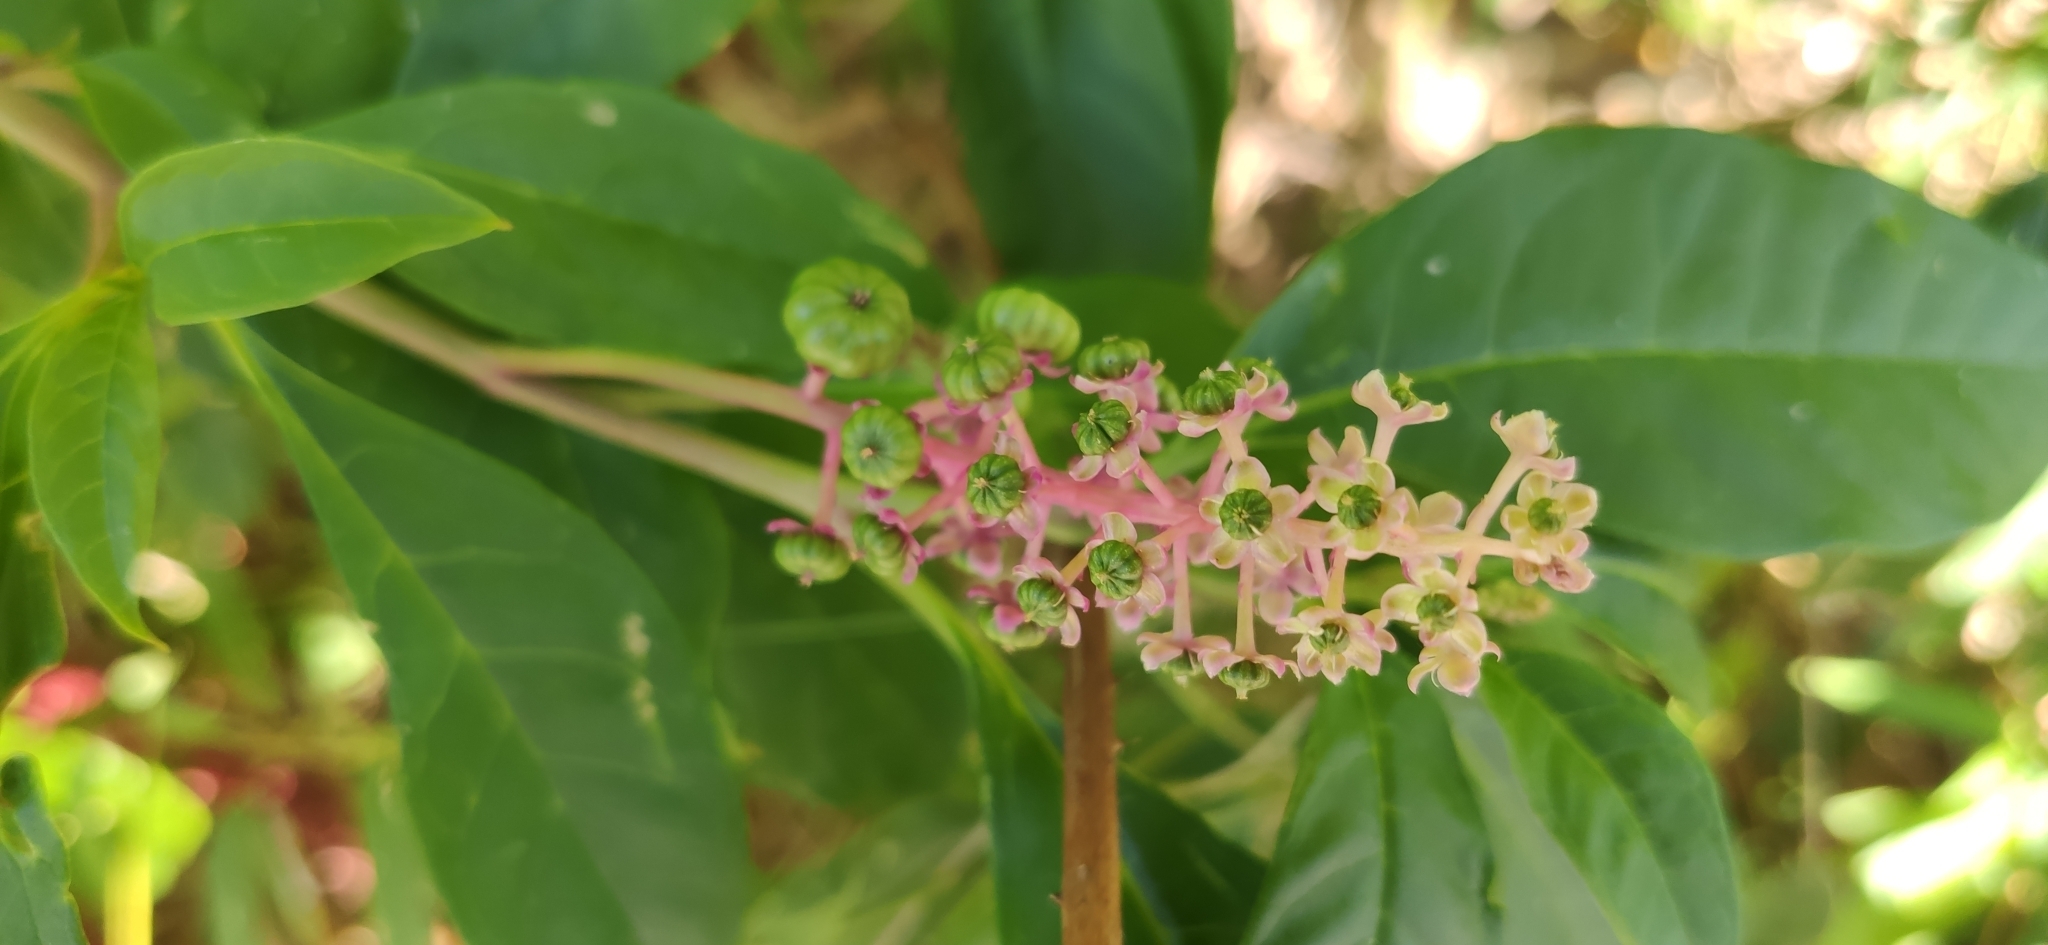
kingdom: Plantae
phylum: Tracheophyta
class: Magnoliopsida
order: Caryophyllales
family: Phytolaccaceae
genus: Phytolacca
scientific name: Phytolacca americana
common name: American pokeweed
